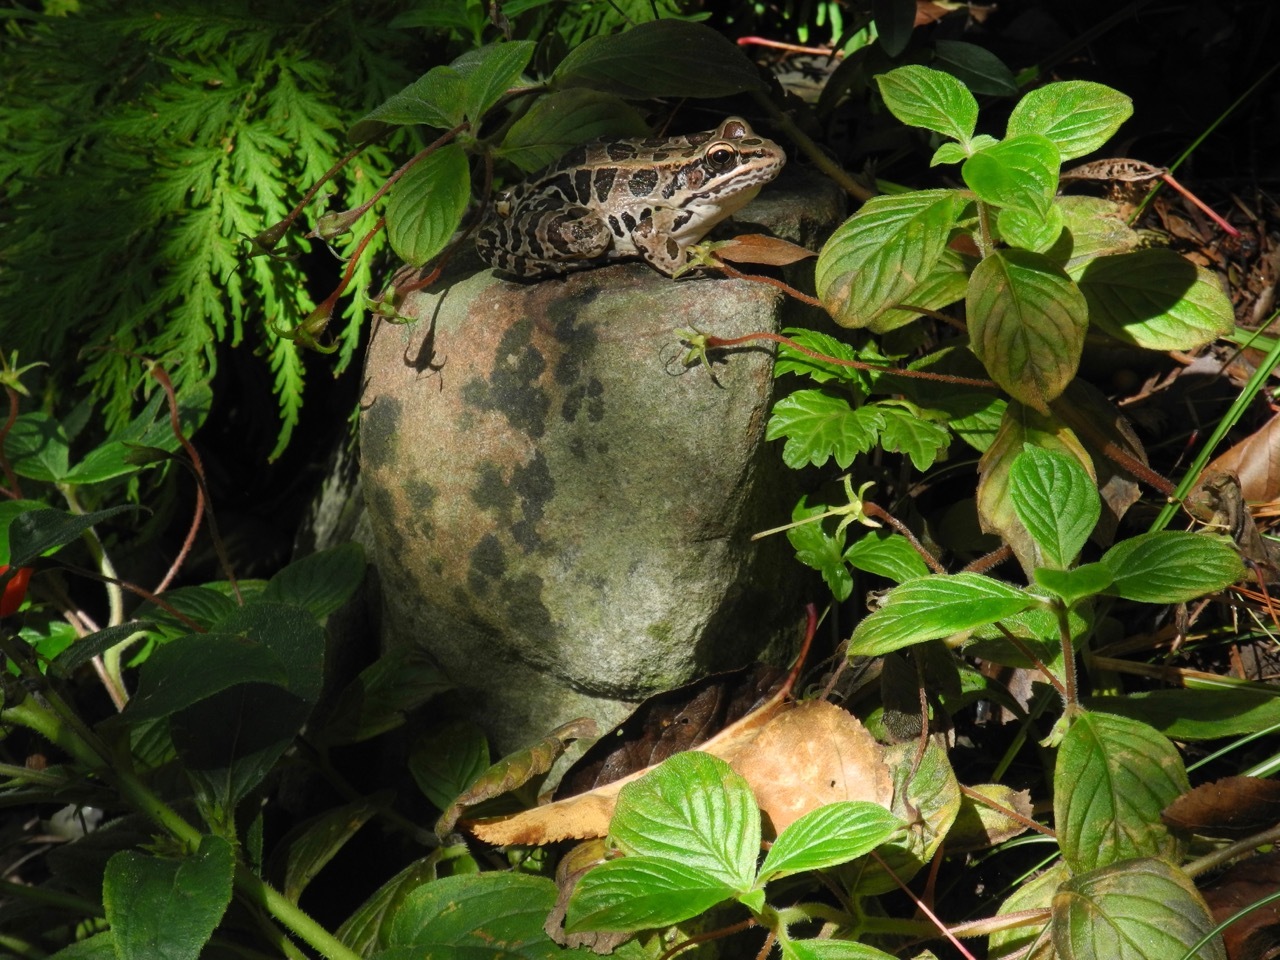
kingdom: Animalia
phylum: Chordata
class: Amphibia
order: Anura
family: Ranidae
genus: Lithobates
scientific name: Lithobates palustris
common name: Pickerel frog
